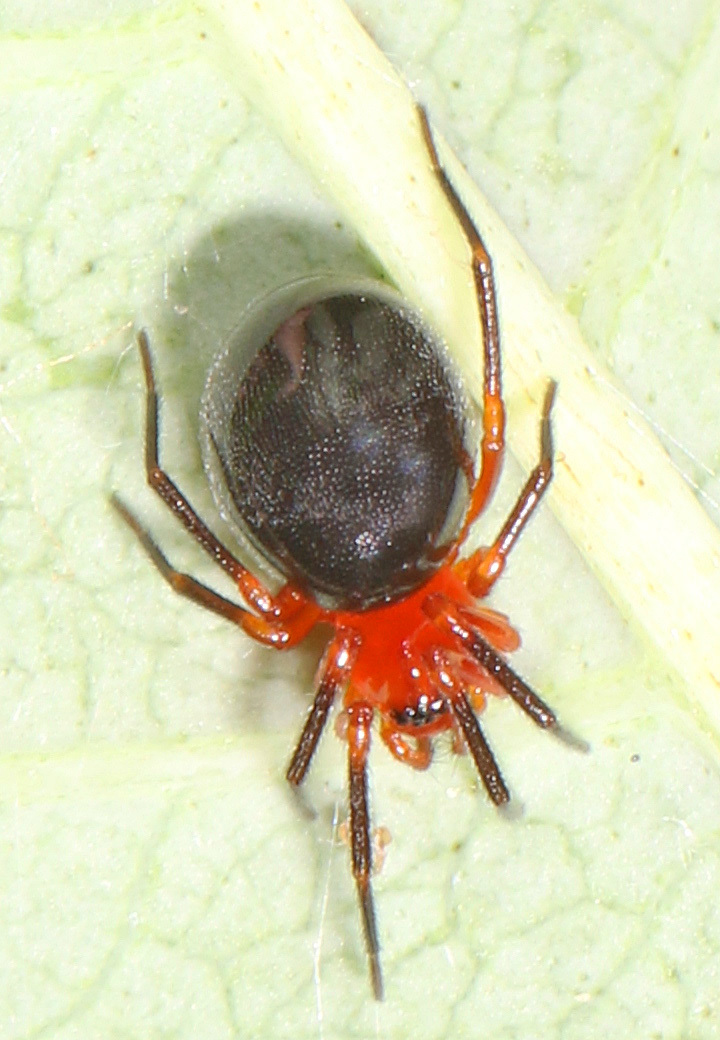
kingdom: Animalia
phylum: Arthropoda
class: Arachnida
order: Araneae
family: Linyphiidae
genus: Hypselistes
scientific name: Hypselistes florens
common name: Peatland sheetweb weaver
